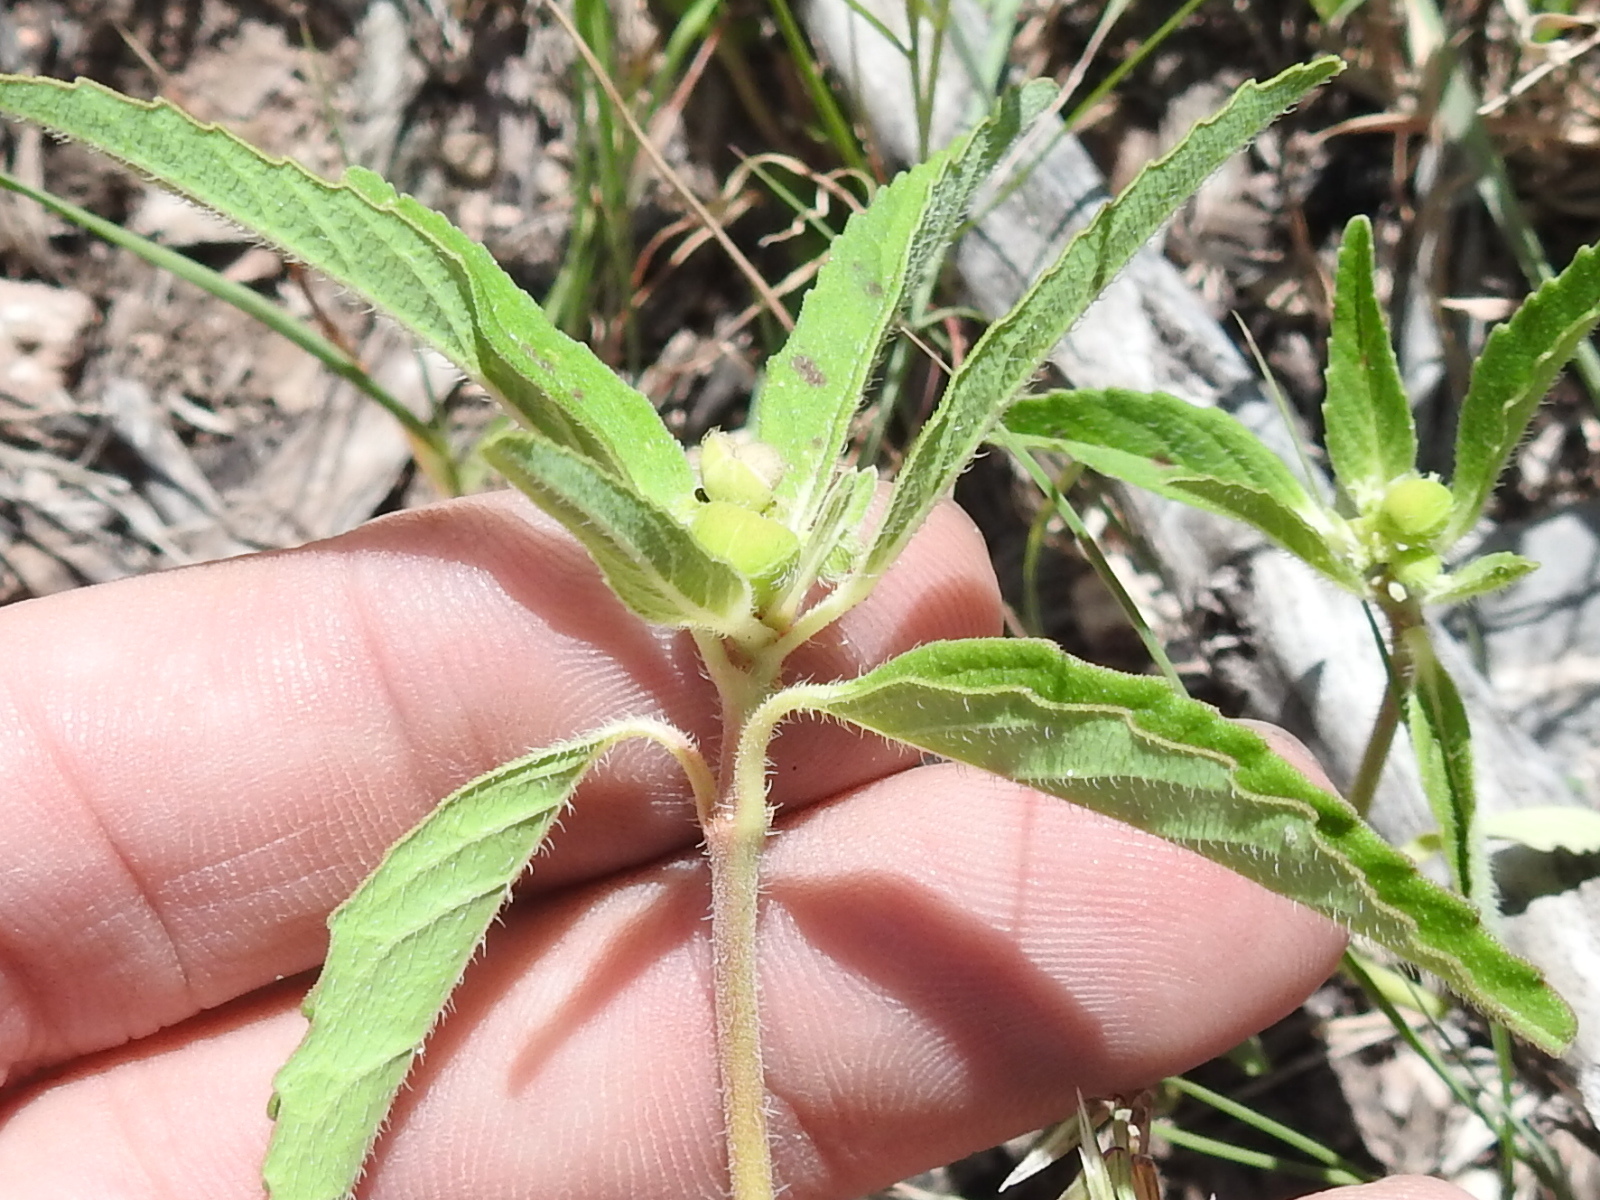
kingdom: Plantae
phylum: Tracheophyta
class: Magnoliopsida
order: Malpighiales
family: Euphorbiaceae
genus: Euphorbia
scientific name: Euphorbia cuphosperma
